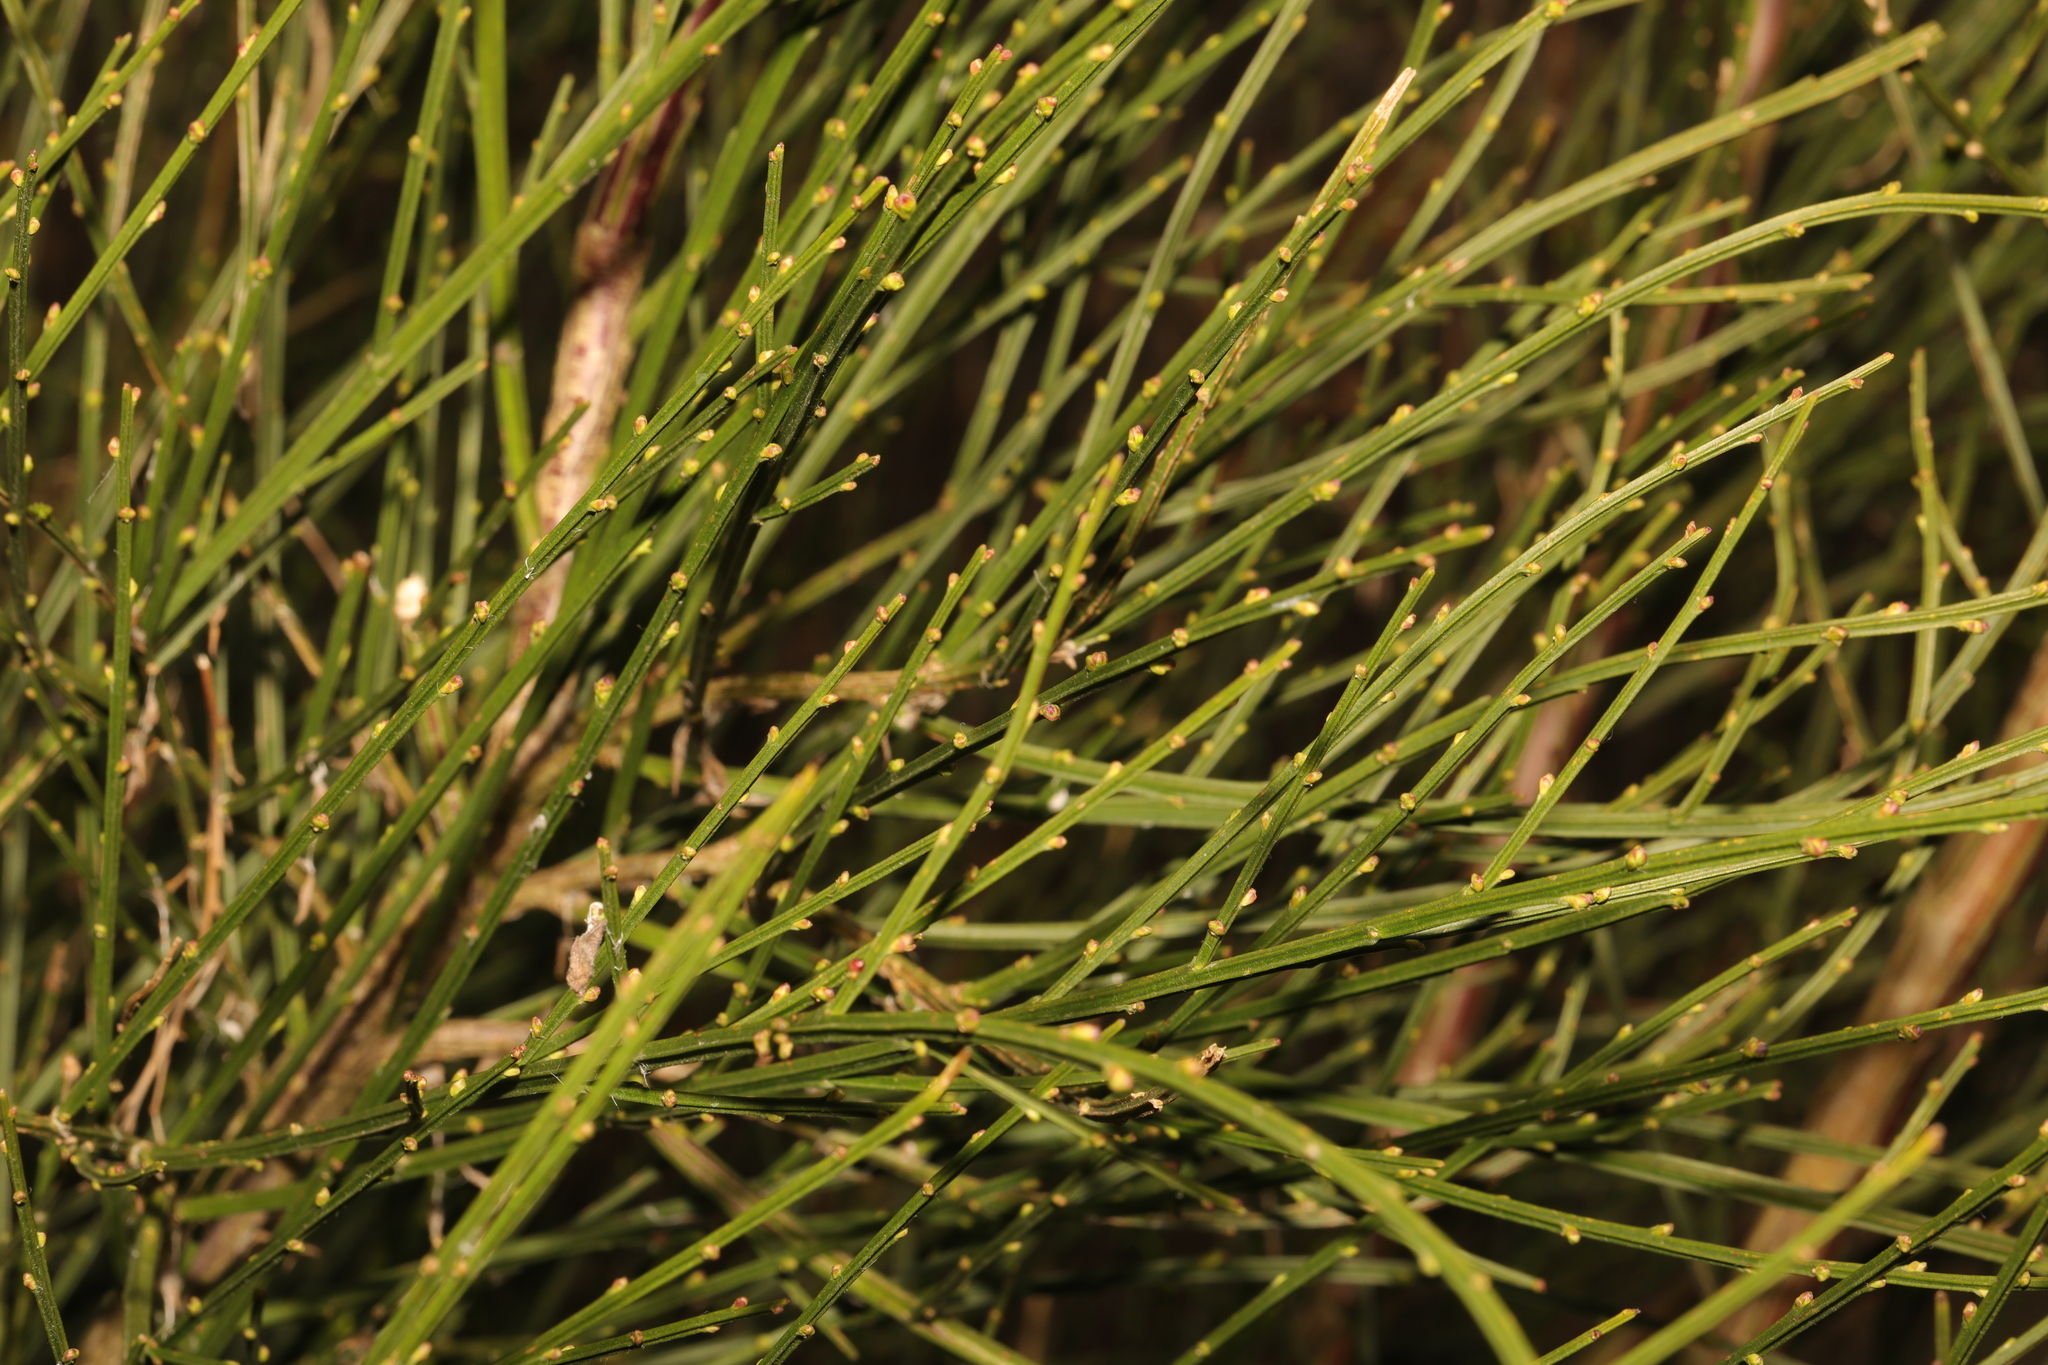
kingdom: Plantae
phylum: Tracheophyta
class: Magnoliopsida
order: Fabales
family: Fabaceae
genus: Cytisus
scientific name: Cytisus scoparius
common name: Scotch broom
